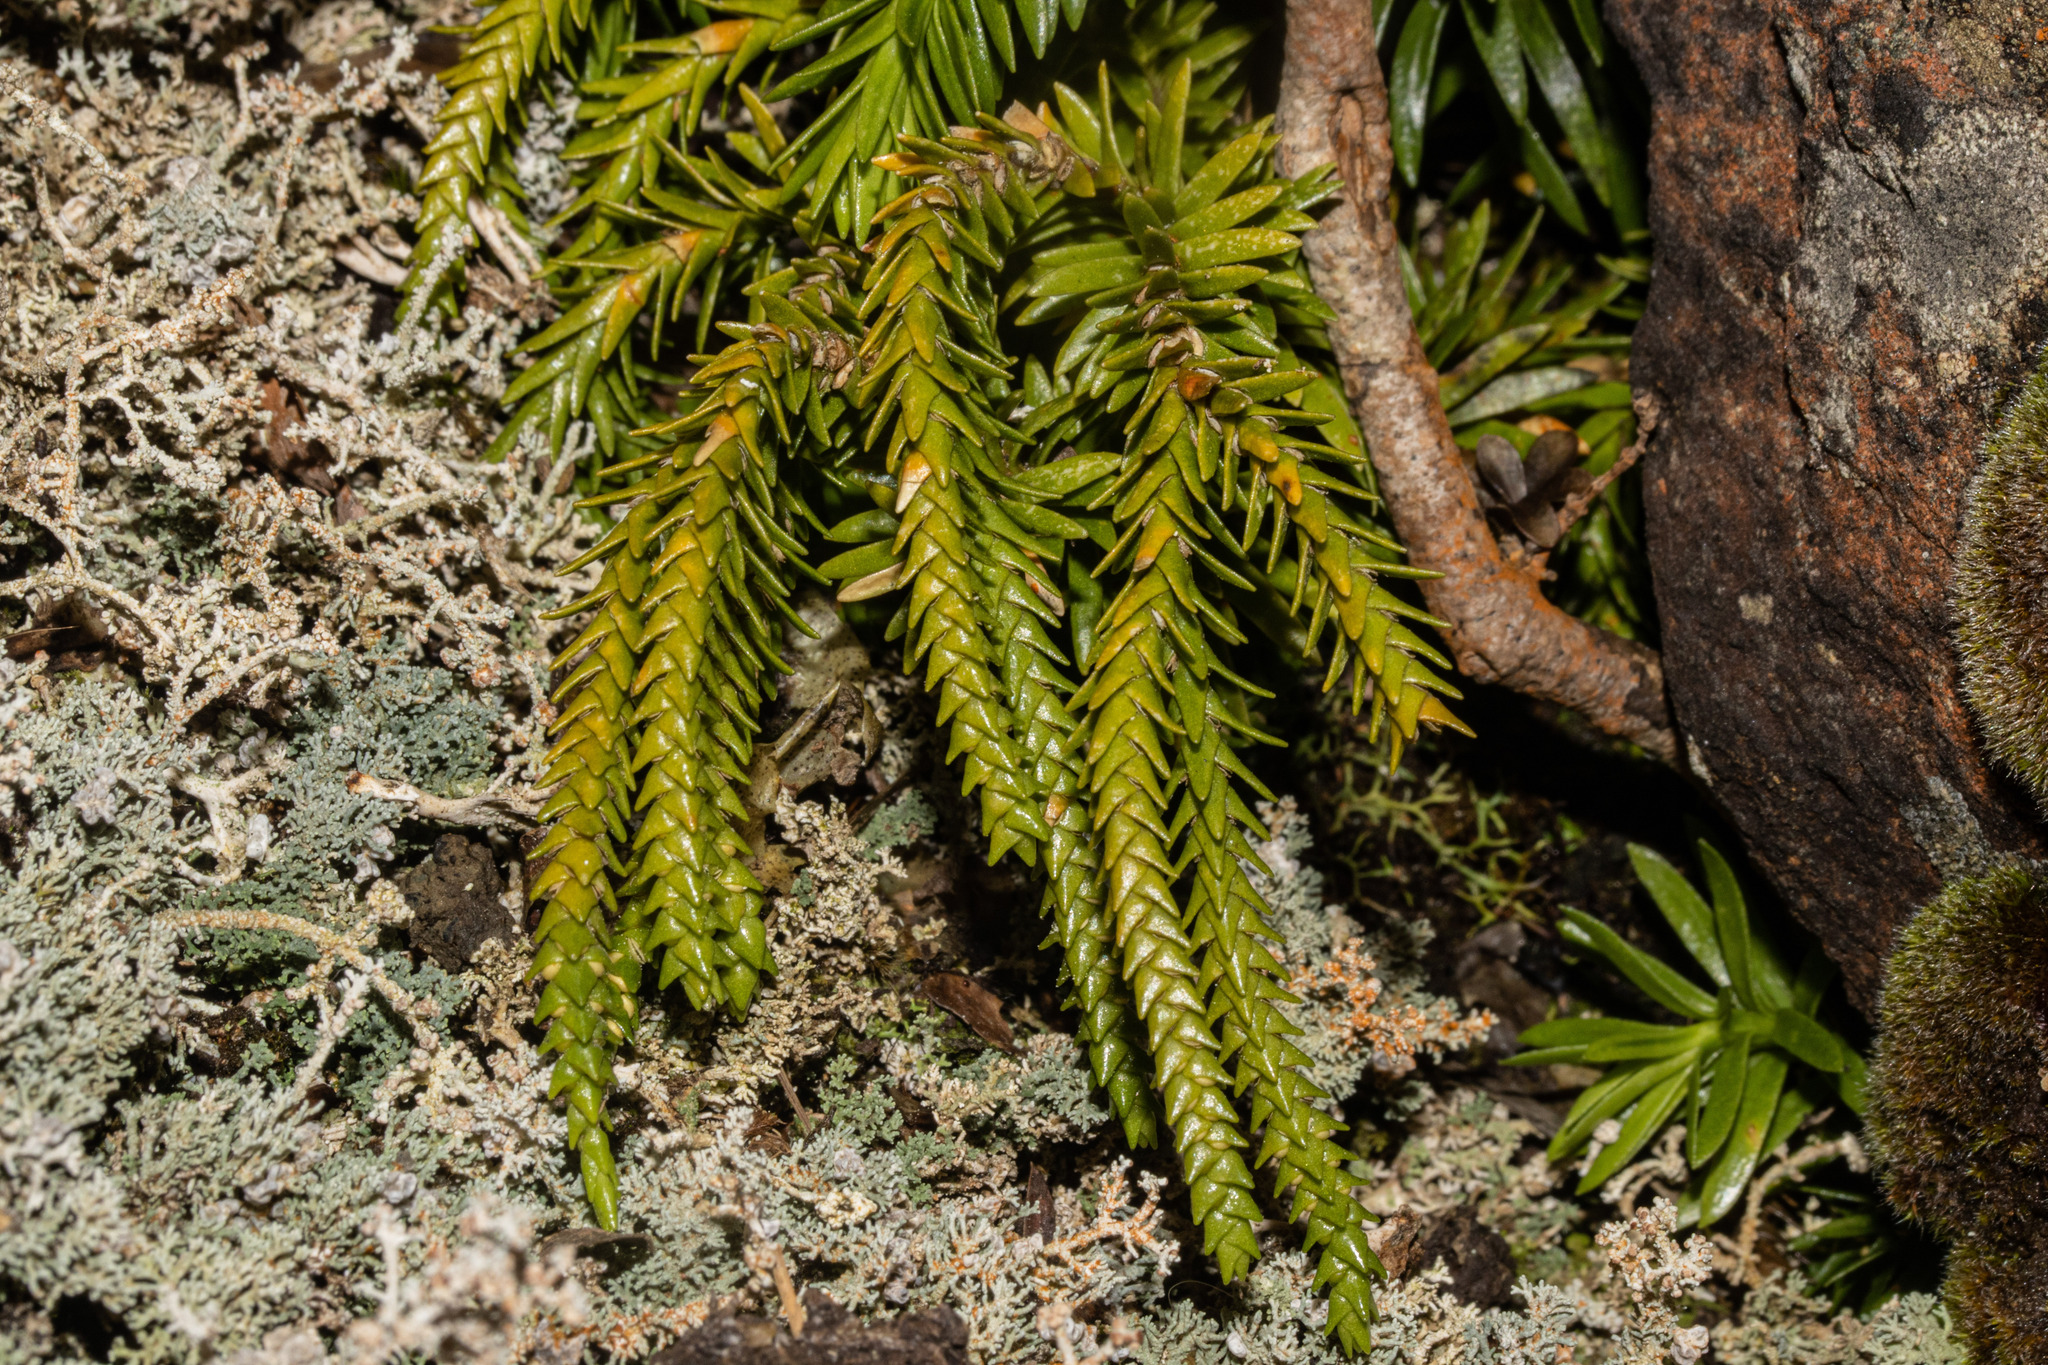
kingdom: Plantae
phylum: Tracheophyta
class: Lycopodiopsida
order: Lycopodiales
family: Lycopodiaceae
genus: Phlegmariurus
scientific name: Phlegmariurus varius
